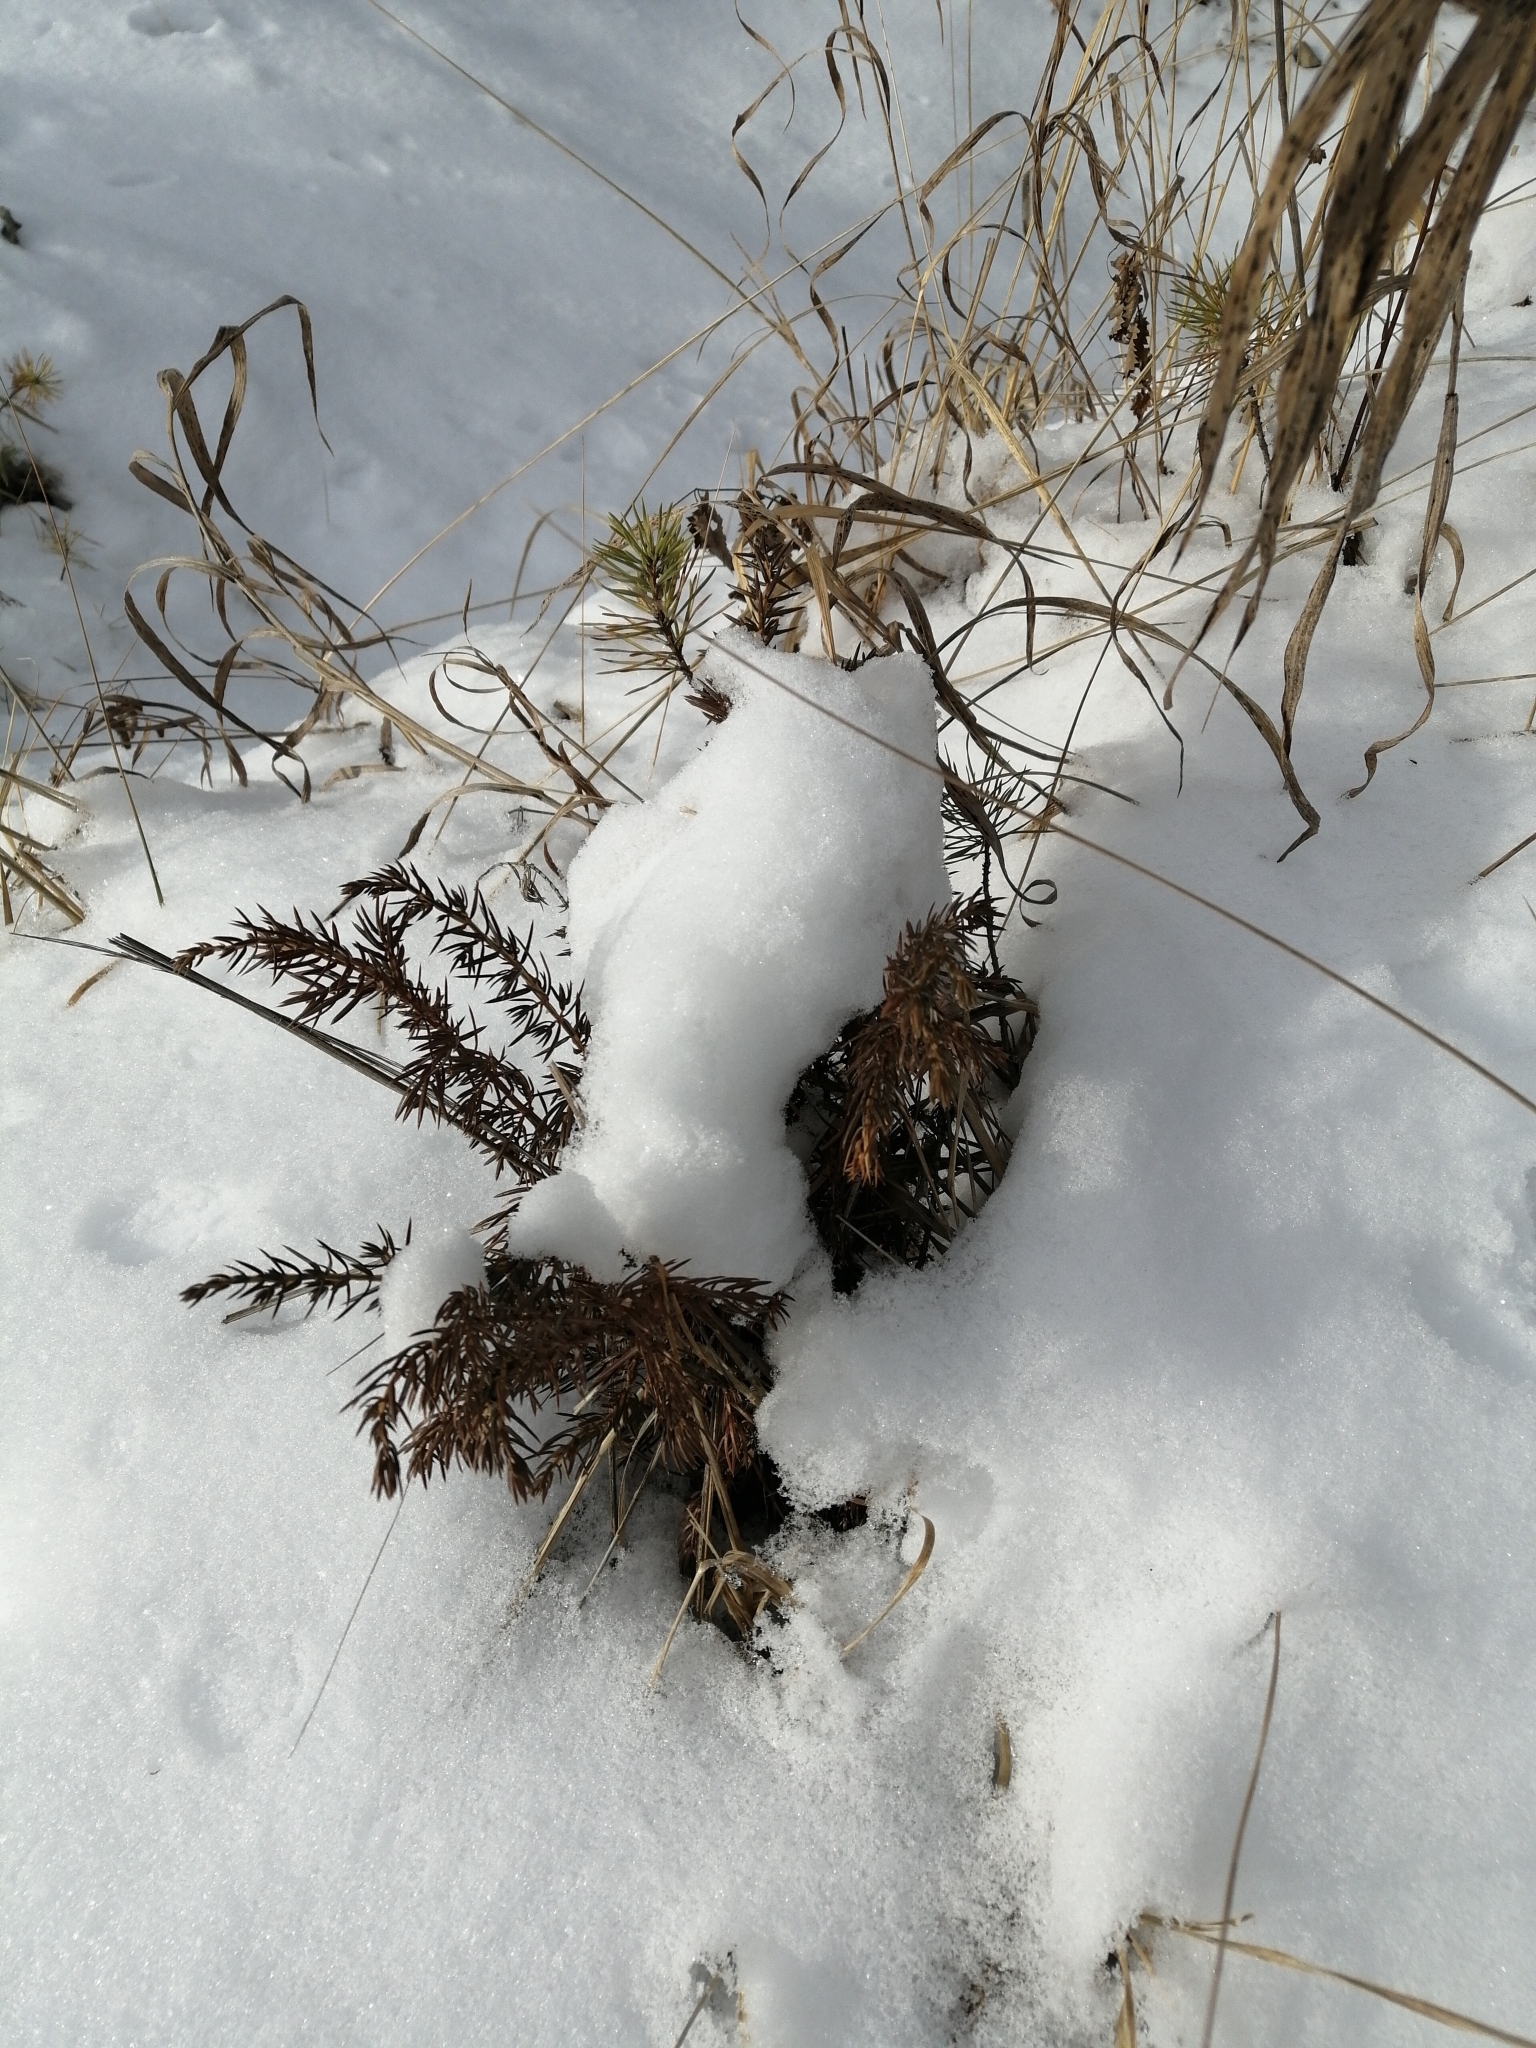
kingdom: Plantae
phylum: Tracheophyta
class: Pinopsida
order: Pinales
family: Cupressaceae
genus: Juniperus
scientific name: Juniperus communis
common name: Common juniper
